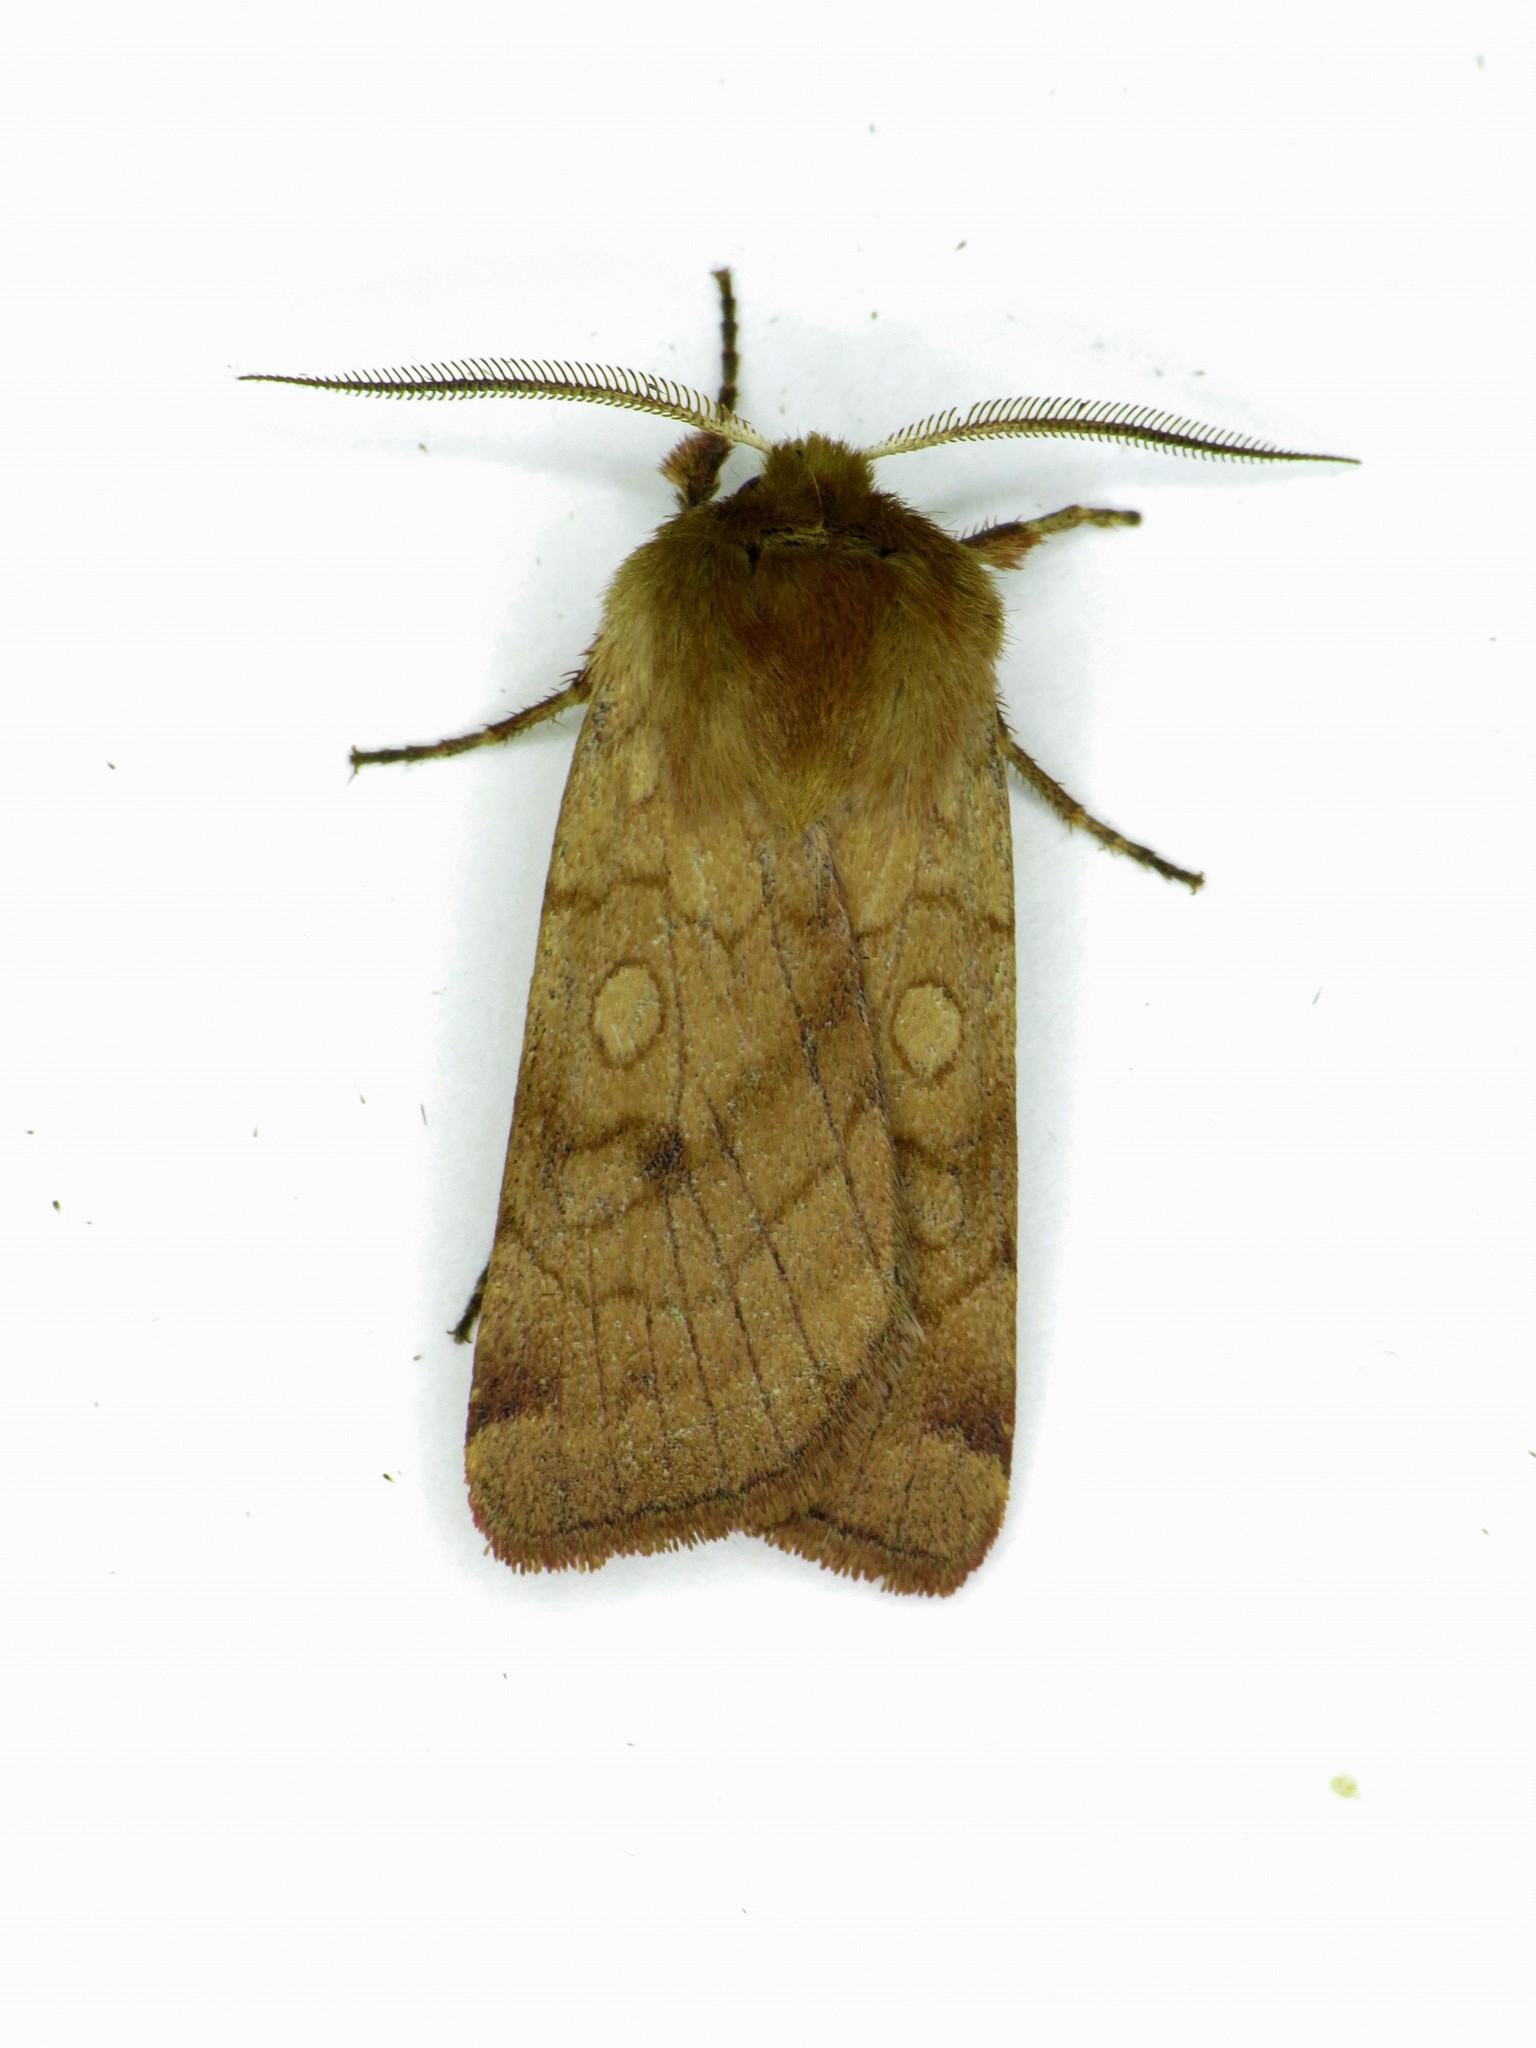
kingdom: Animalia
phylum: Arthropoda
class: Insecta
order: Lepidoptera
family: Noctuidae
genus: Paradiarsia
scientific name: Paradiarsia littoralis
